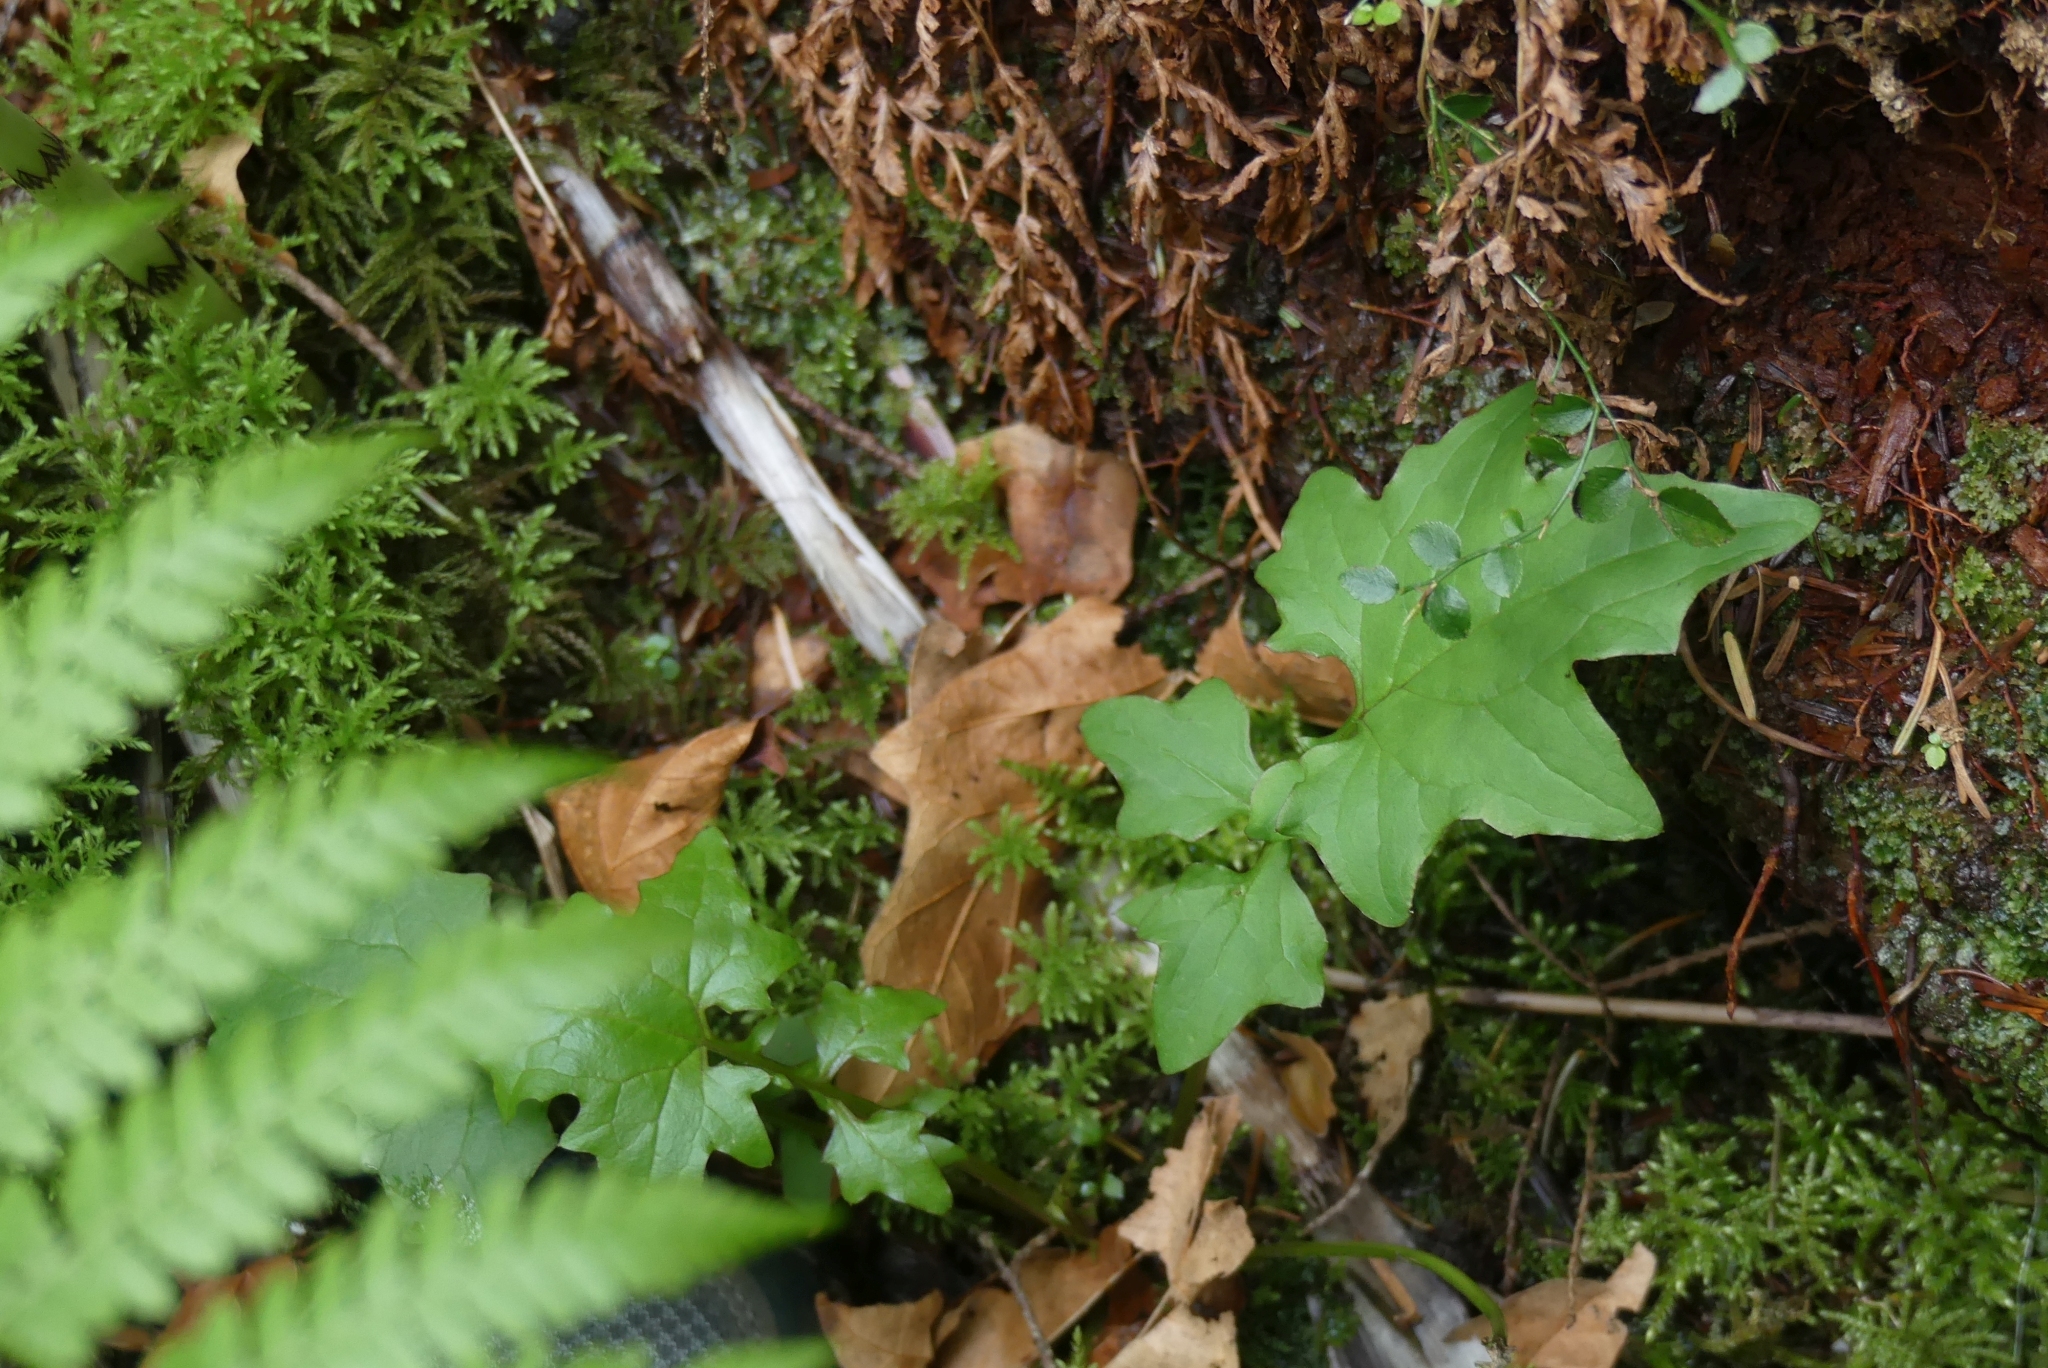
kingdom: Plantae
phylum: Tracheophyta
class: Magnoliopsida
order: Asterales
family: Asteraceae
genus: Mycelis
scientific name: Mycelis muralis
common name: Wall lettuce
